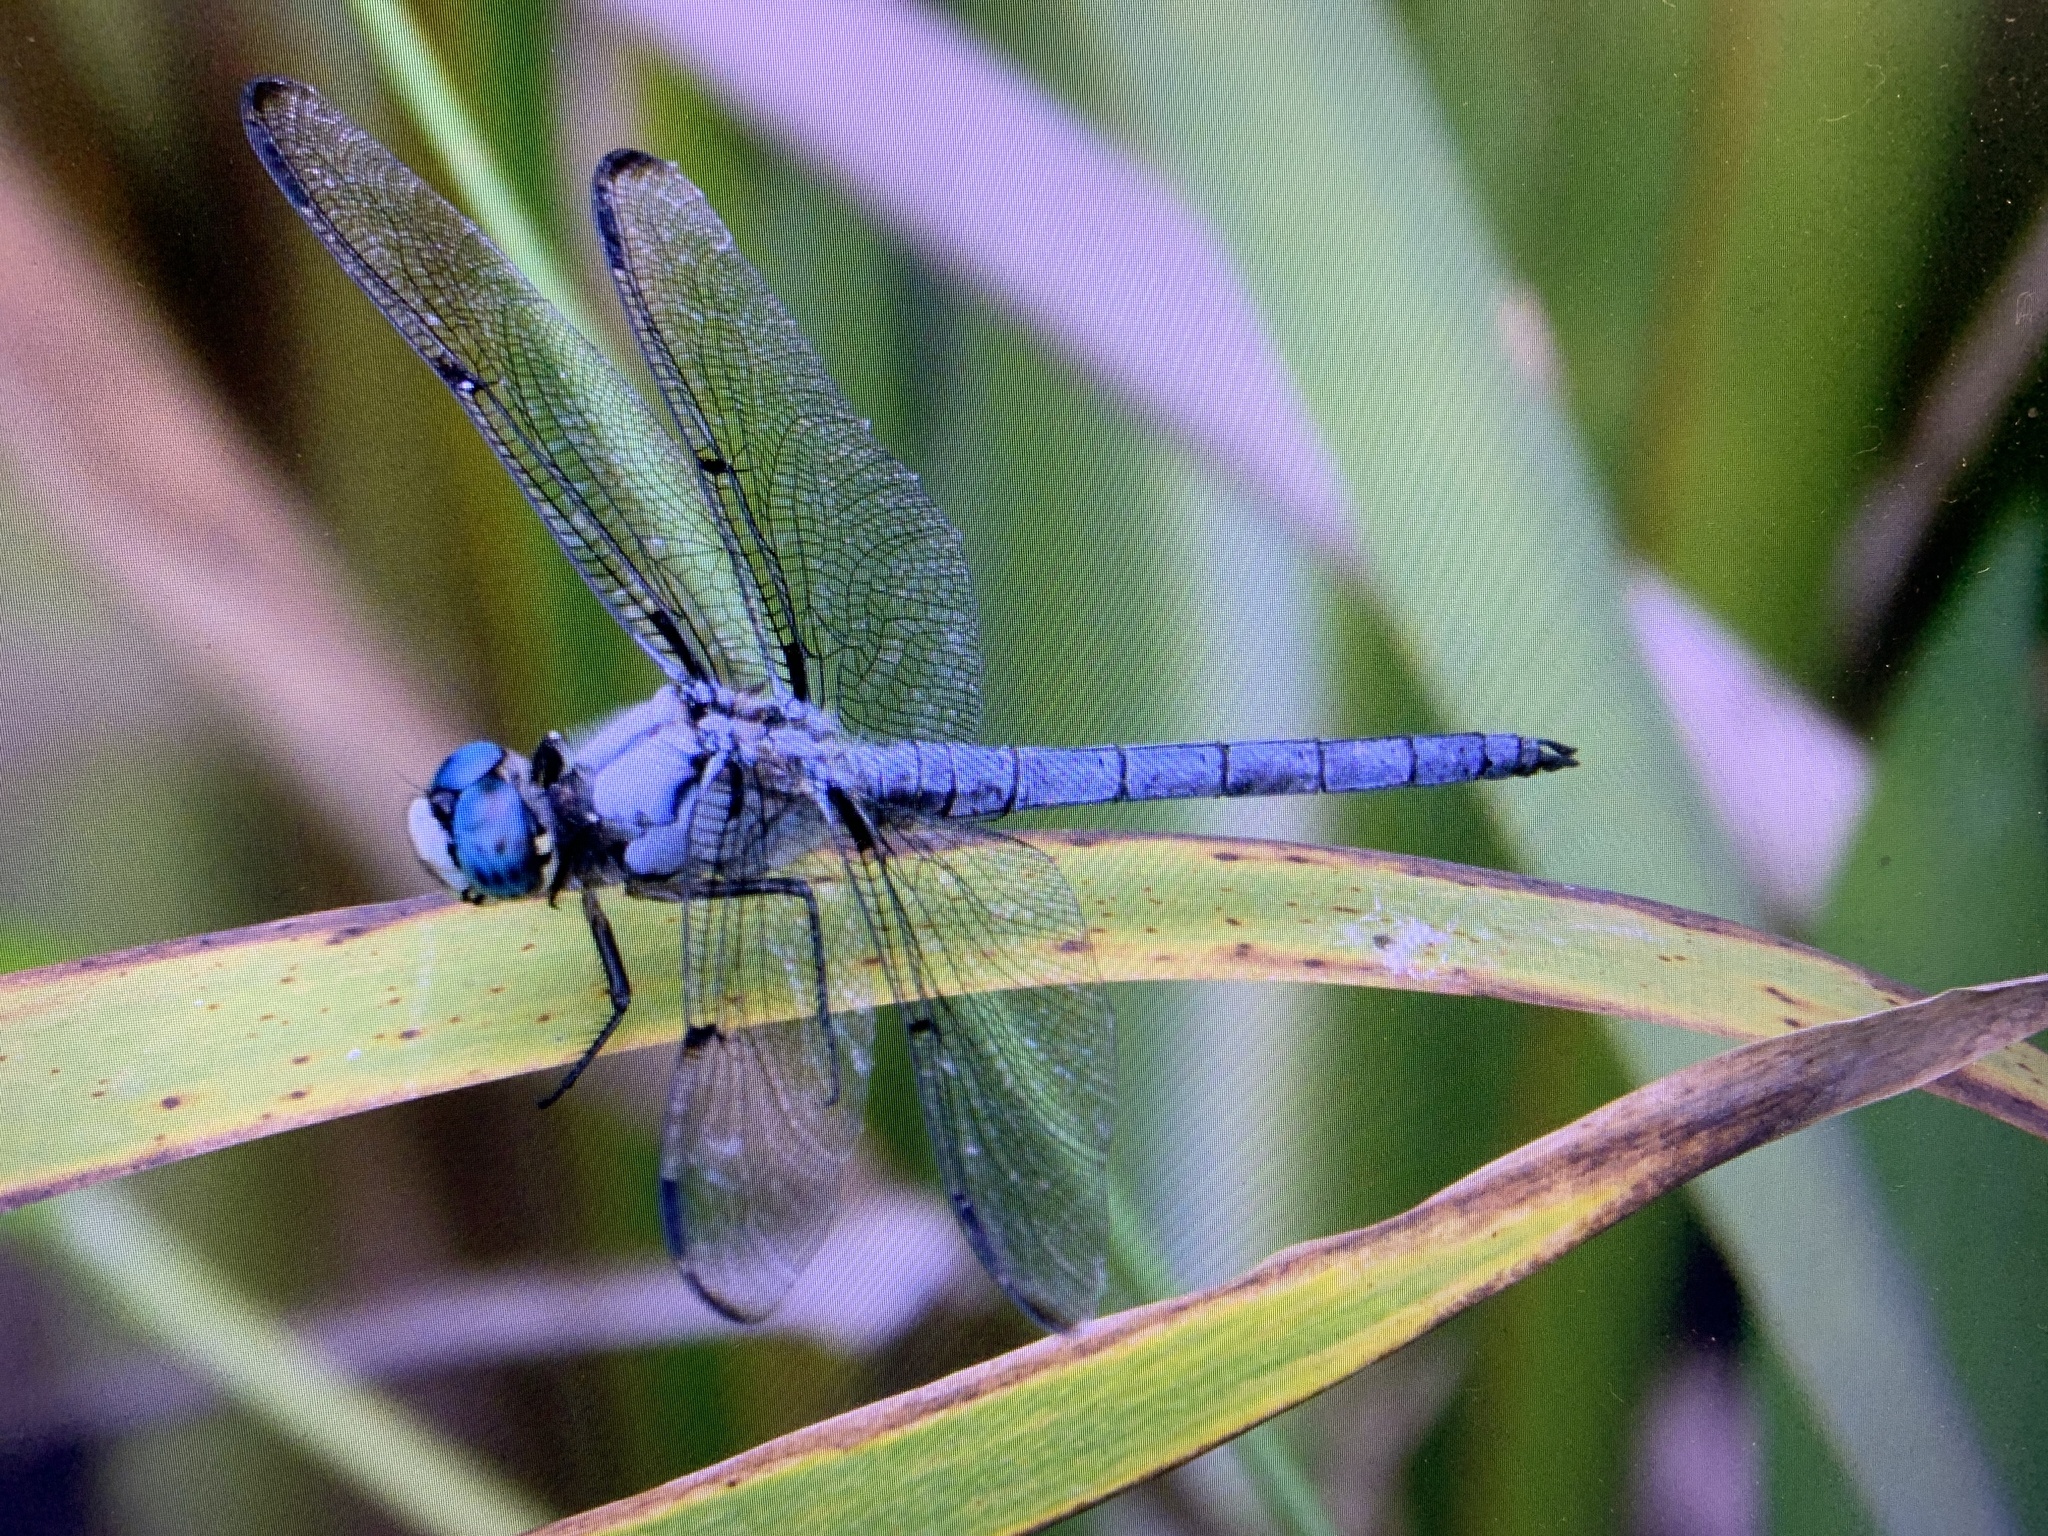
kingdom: Animalia
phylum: Arthropoda
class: Insecta
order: Odonata
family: Libellulidae
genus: Libellula
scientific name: Libellula vibrans
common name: Great blue skimmer
